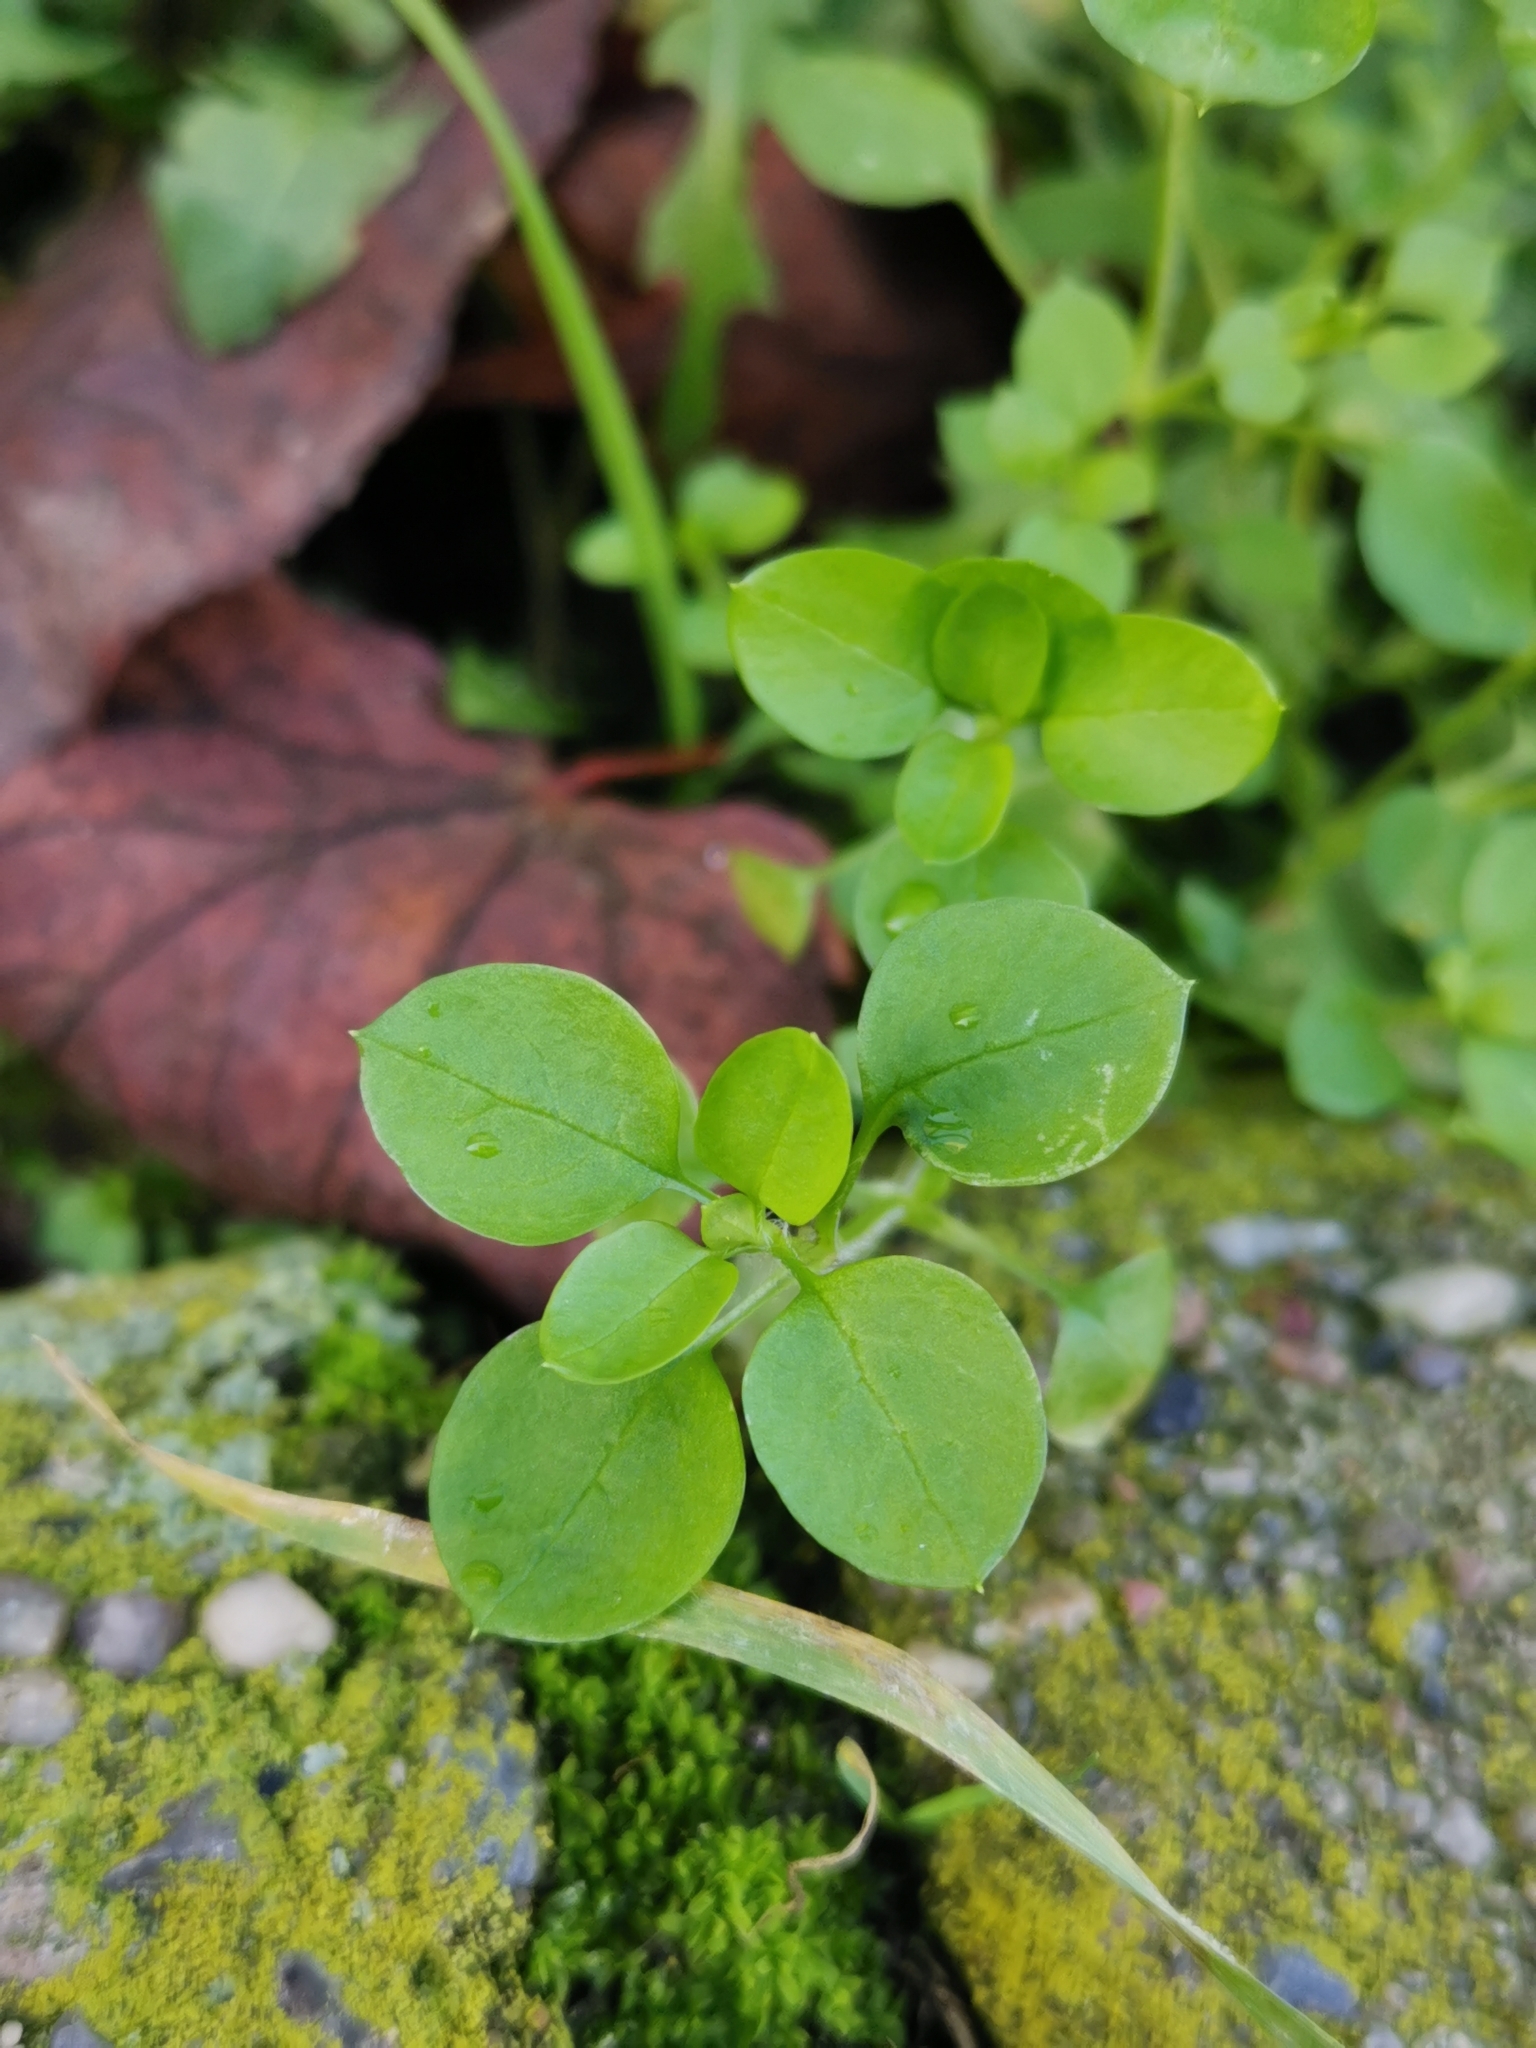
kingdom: Plantae
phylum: Tracheophyta
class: Magnoliopsida
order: Caryophyllales
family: Caryophyllaceae
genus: Stellaria
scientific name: Stellaria media
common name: Common chickweed
